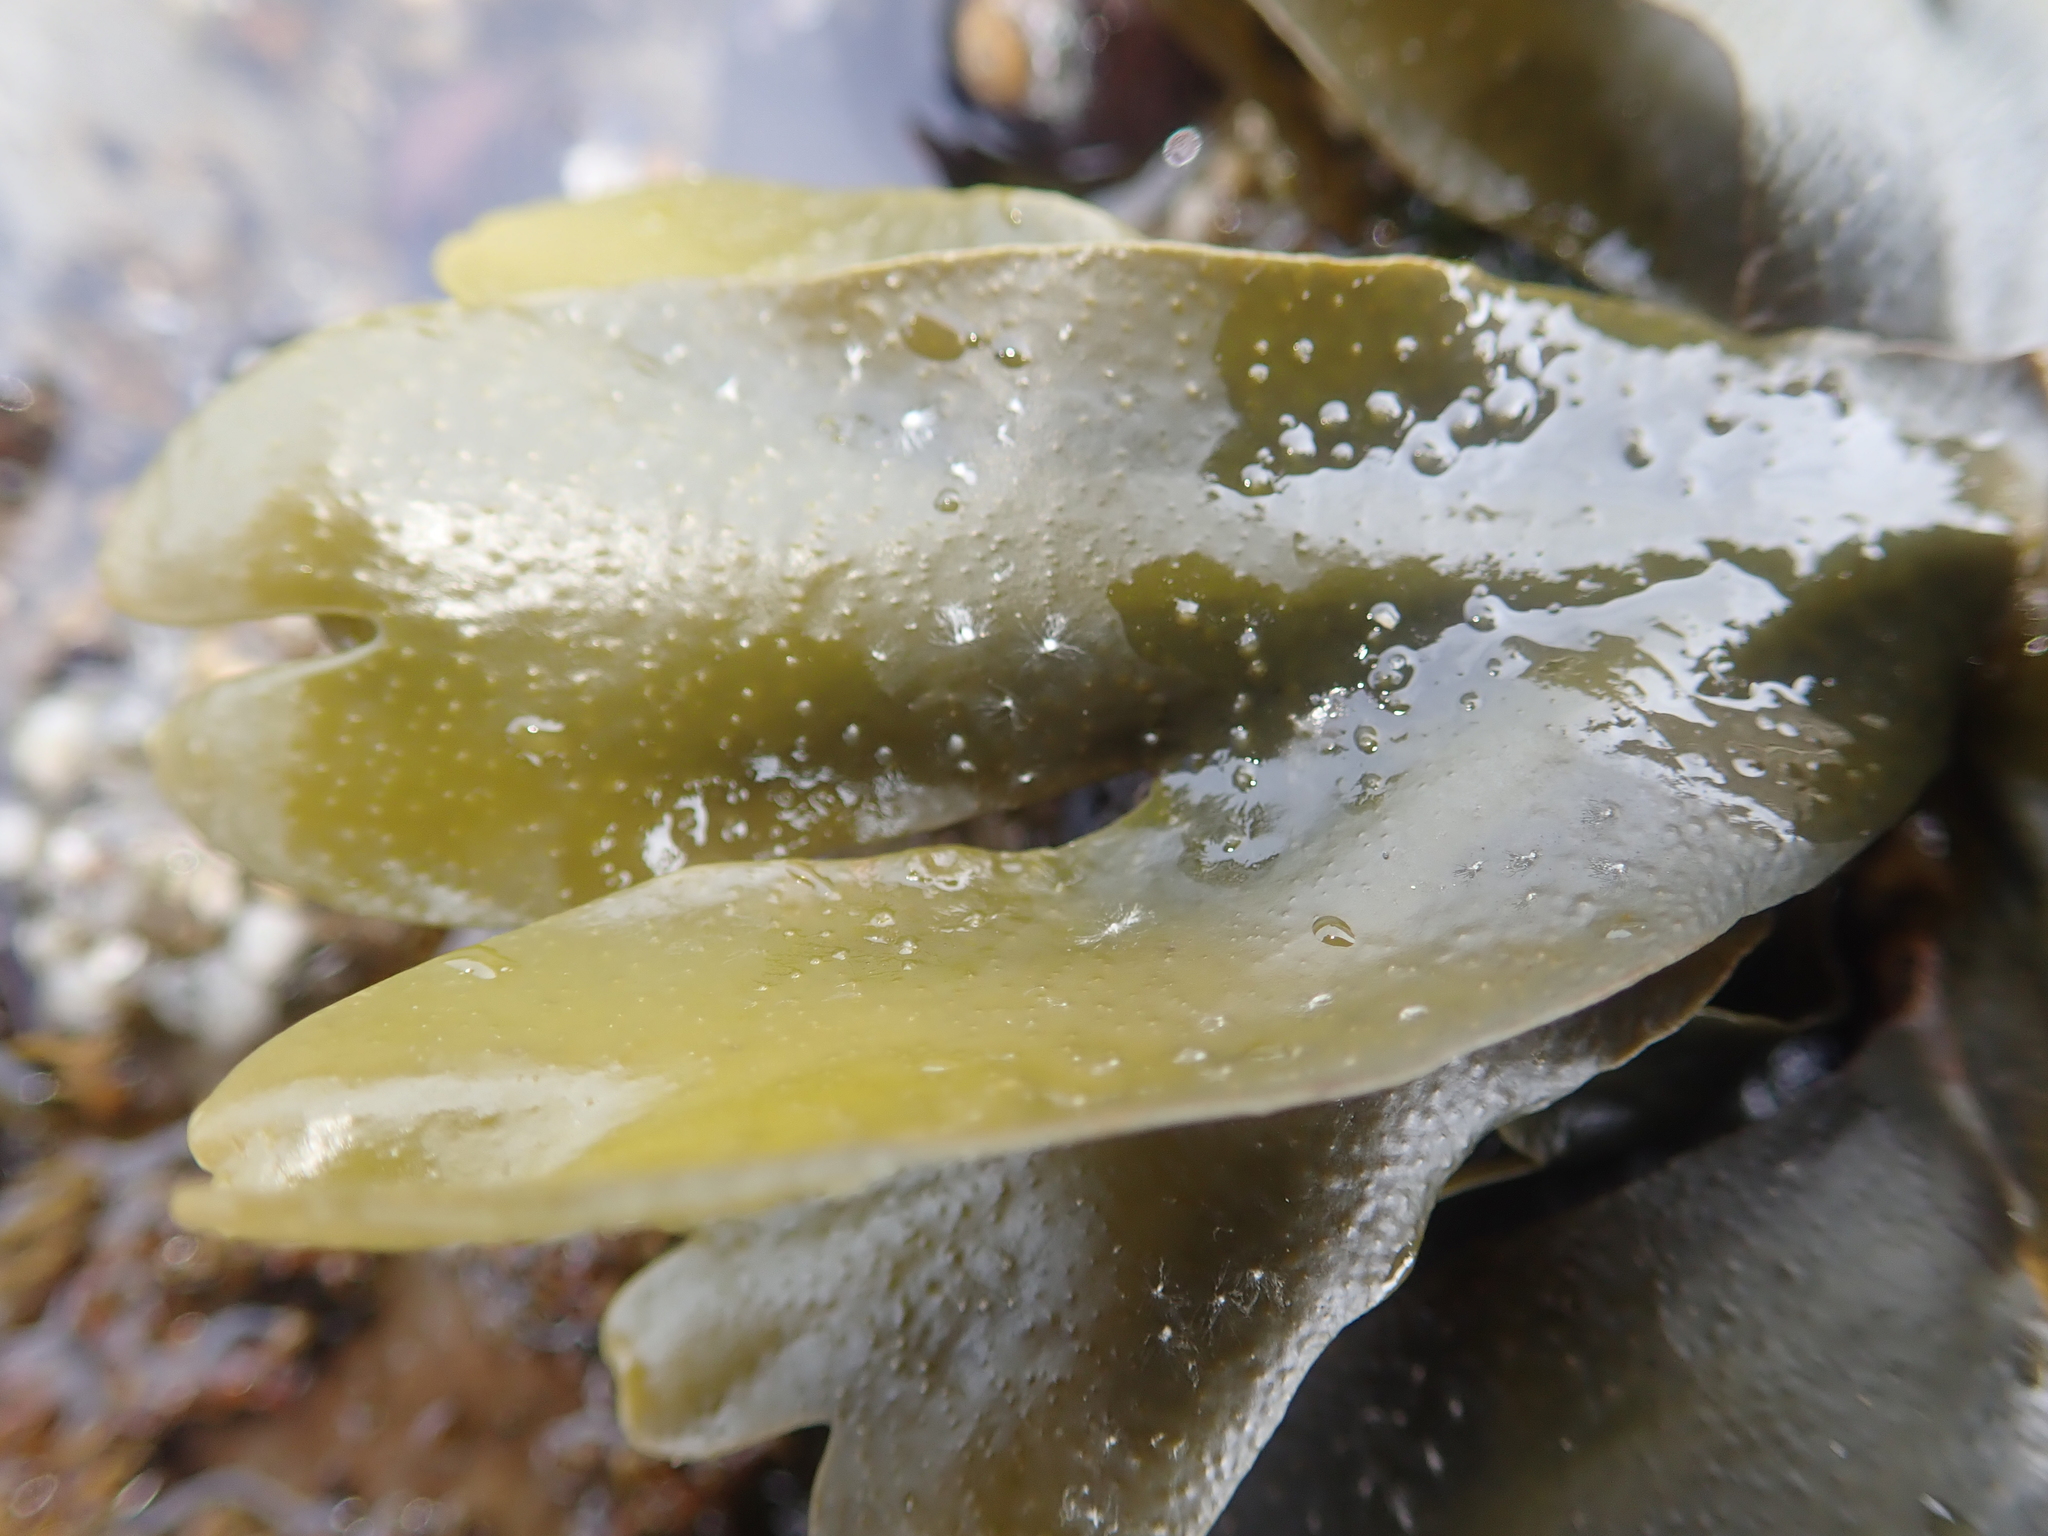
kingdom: Chromista
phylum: Ochrophyta
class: Phaeophyceae
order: Fucales
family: Fucaceae
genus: Fucus
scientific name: Fucus distichus
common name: Rockweed
